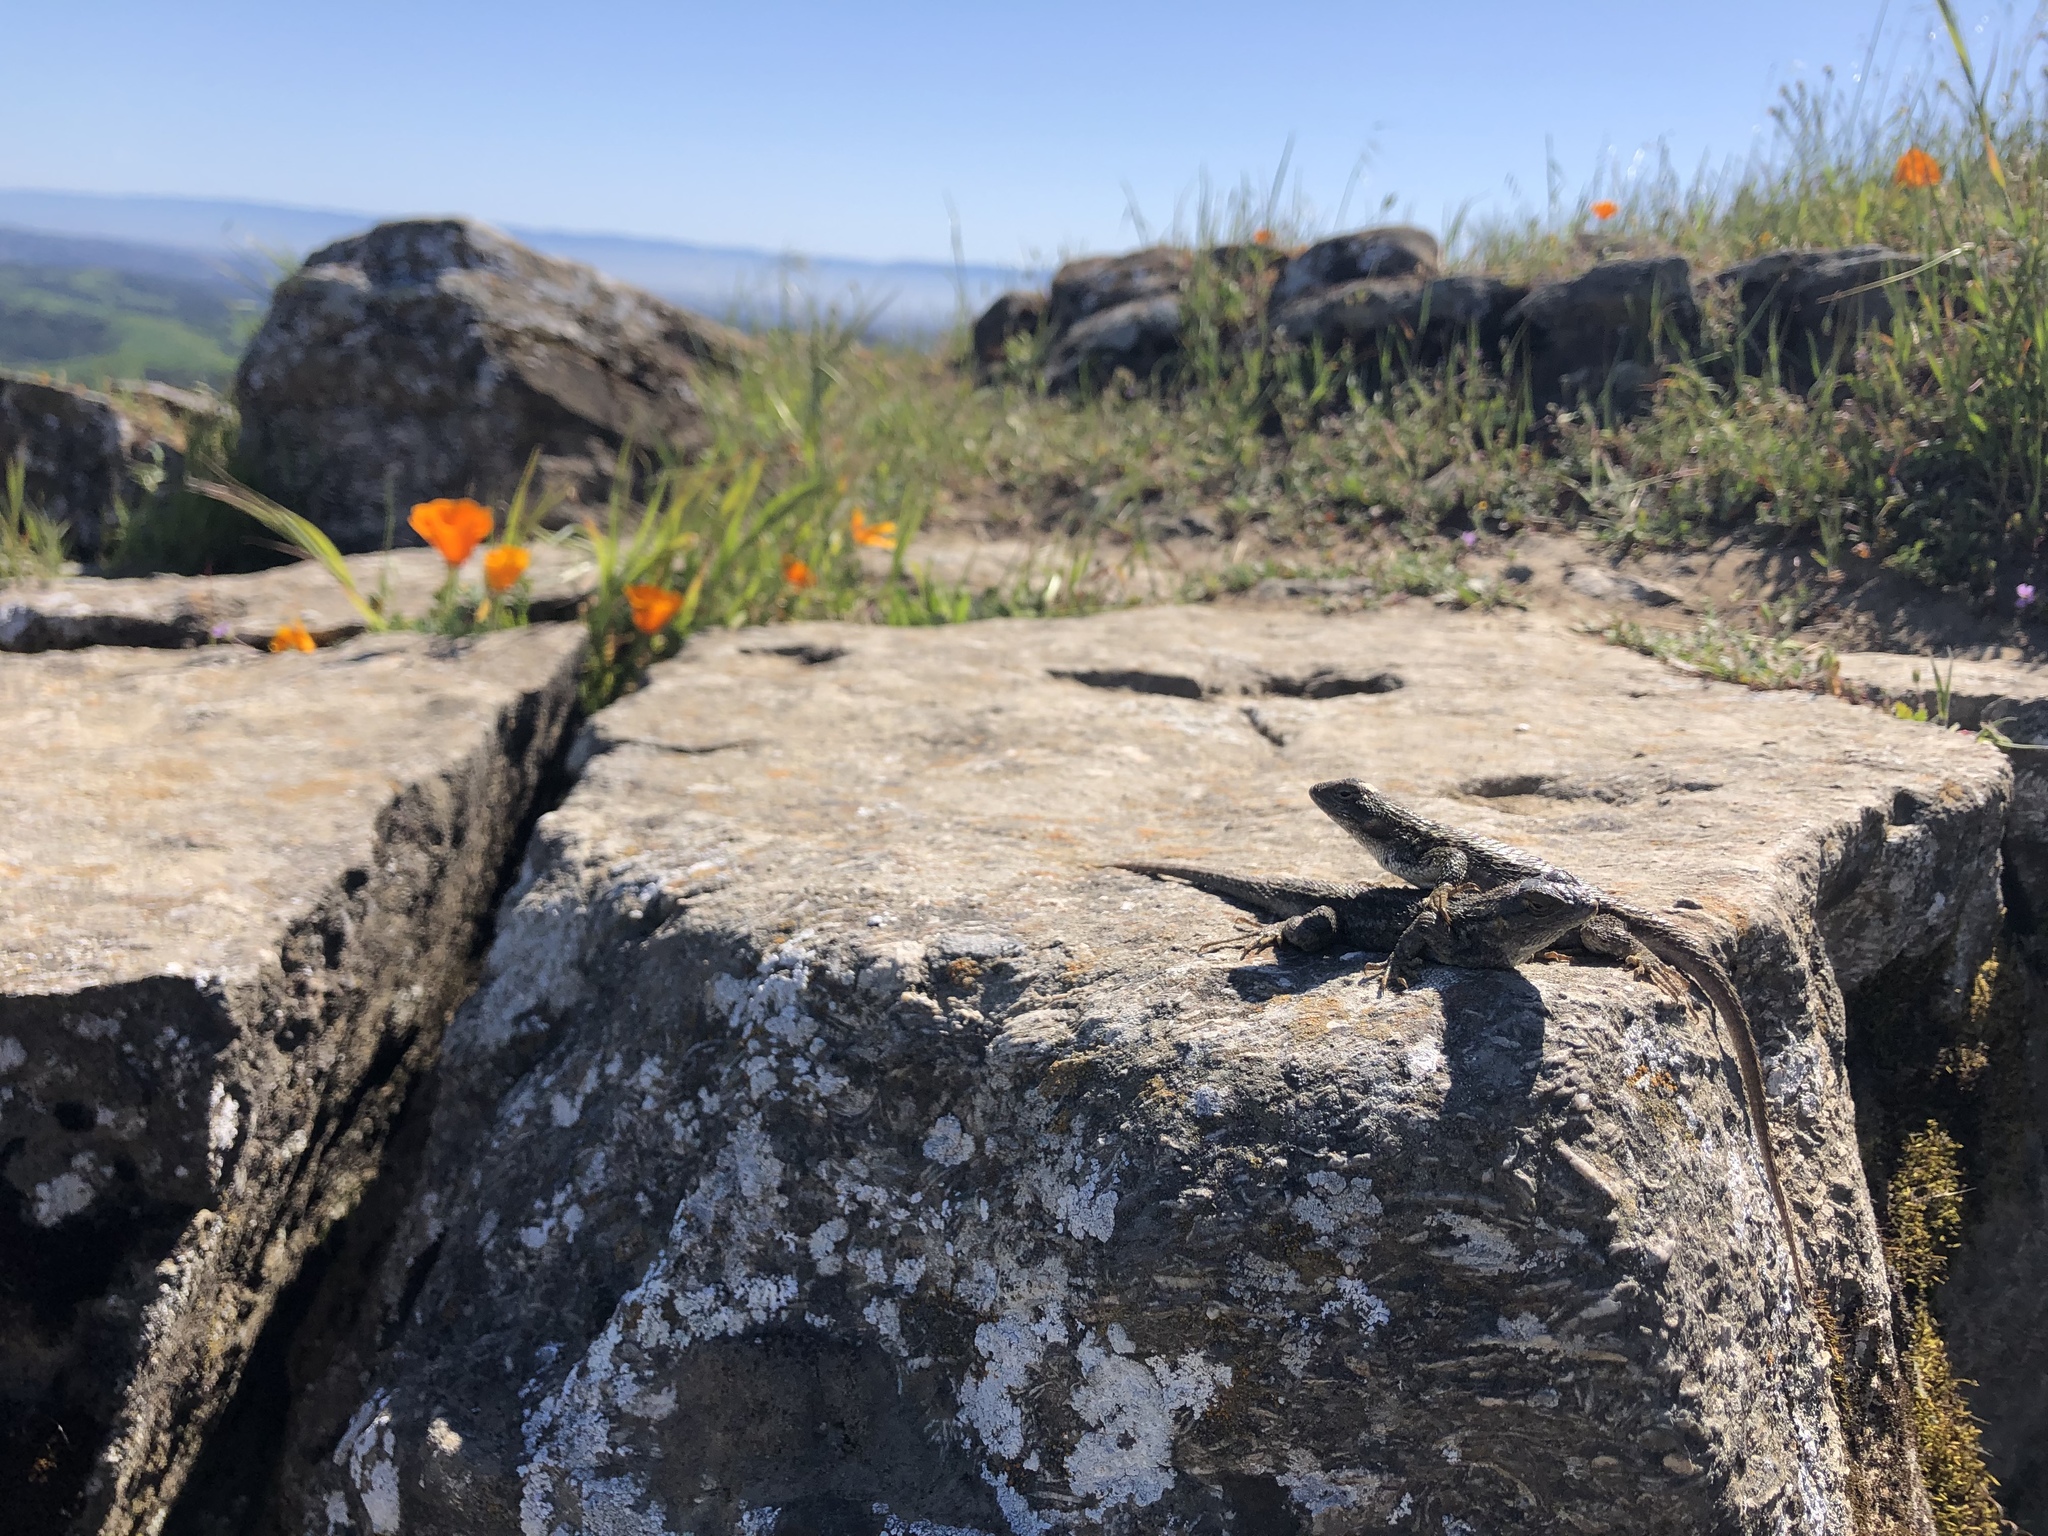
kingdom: Animalia
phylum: Chordata
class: Squamata
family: Phrynosomatidae
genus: Sceloporus
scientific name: Sceloporus occidentalis
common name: Western fence lizard
